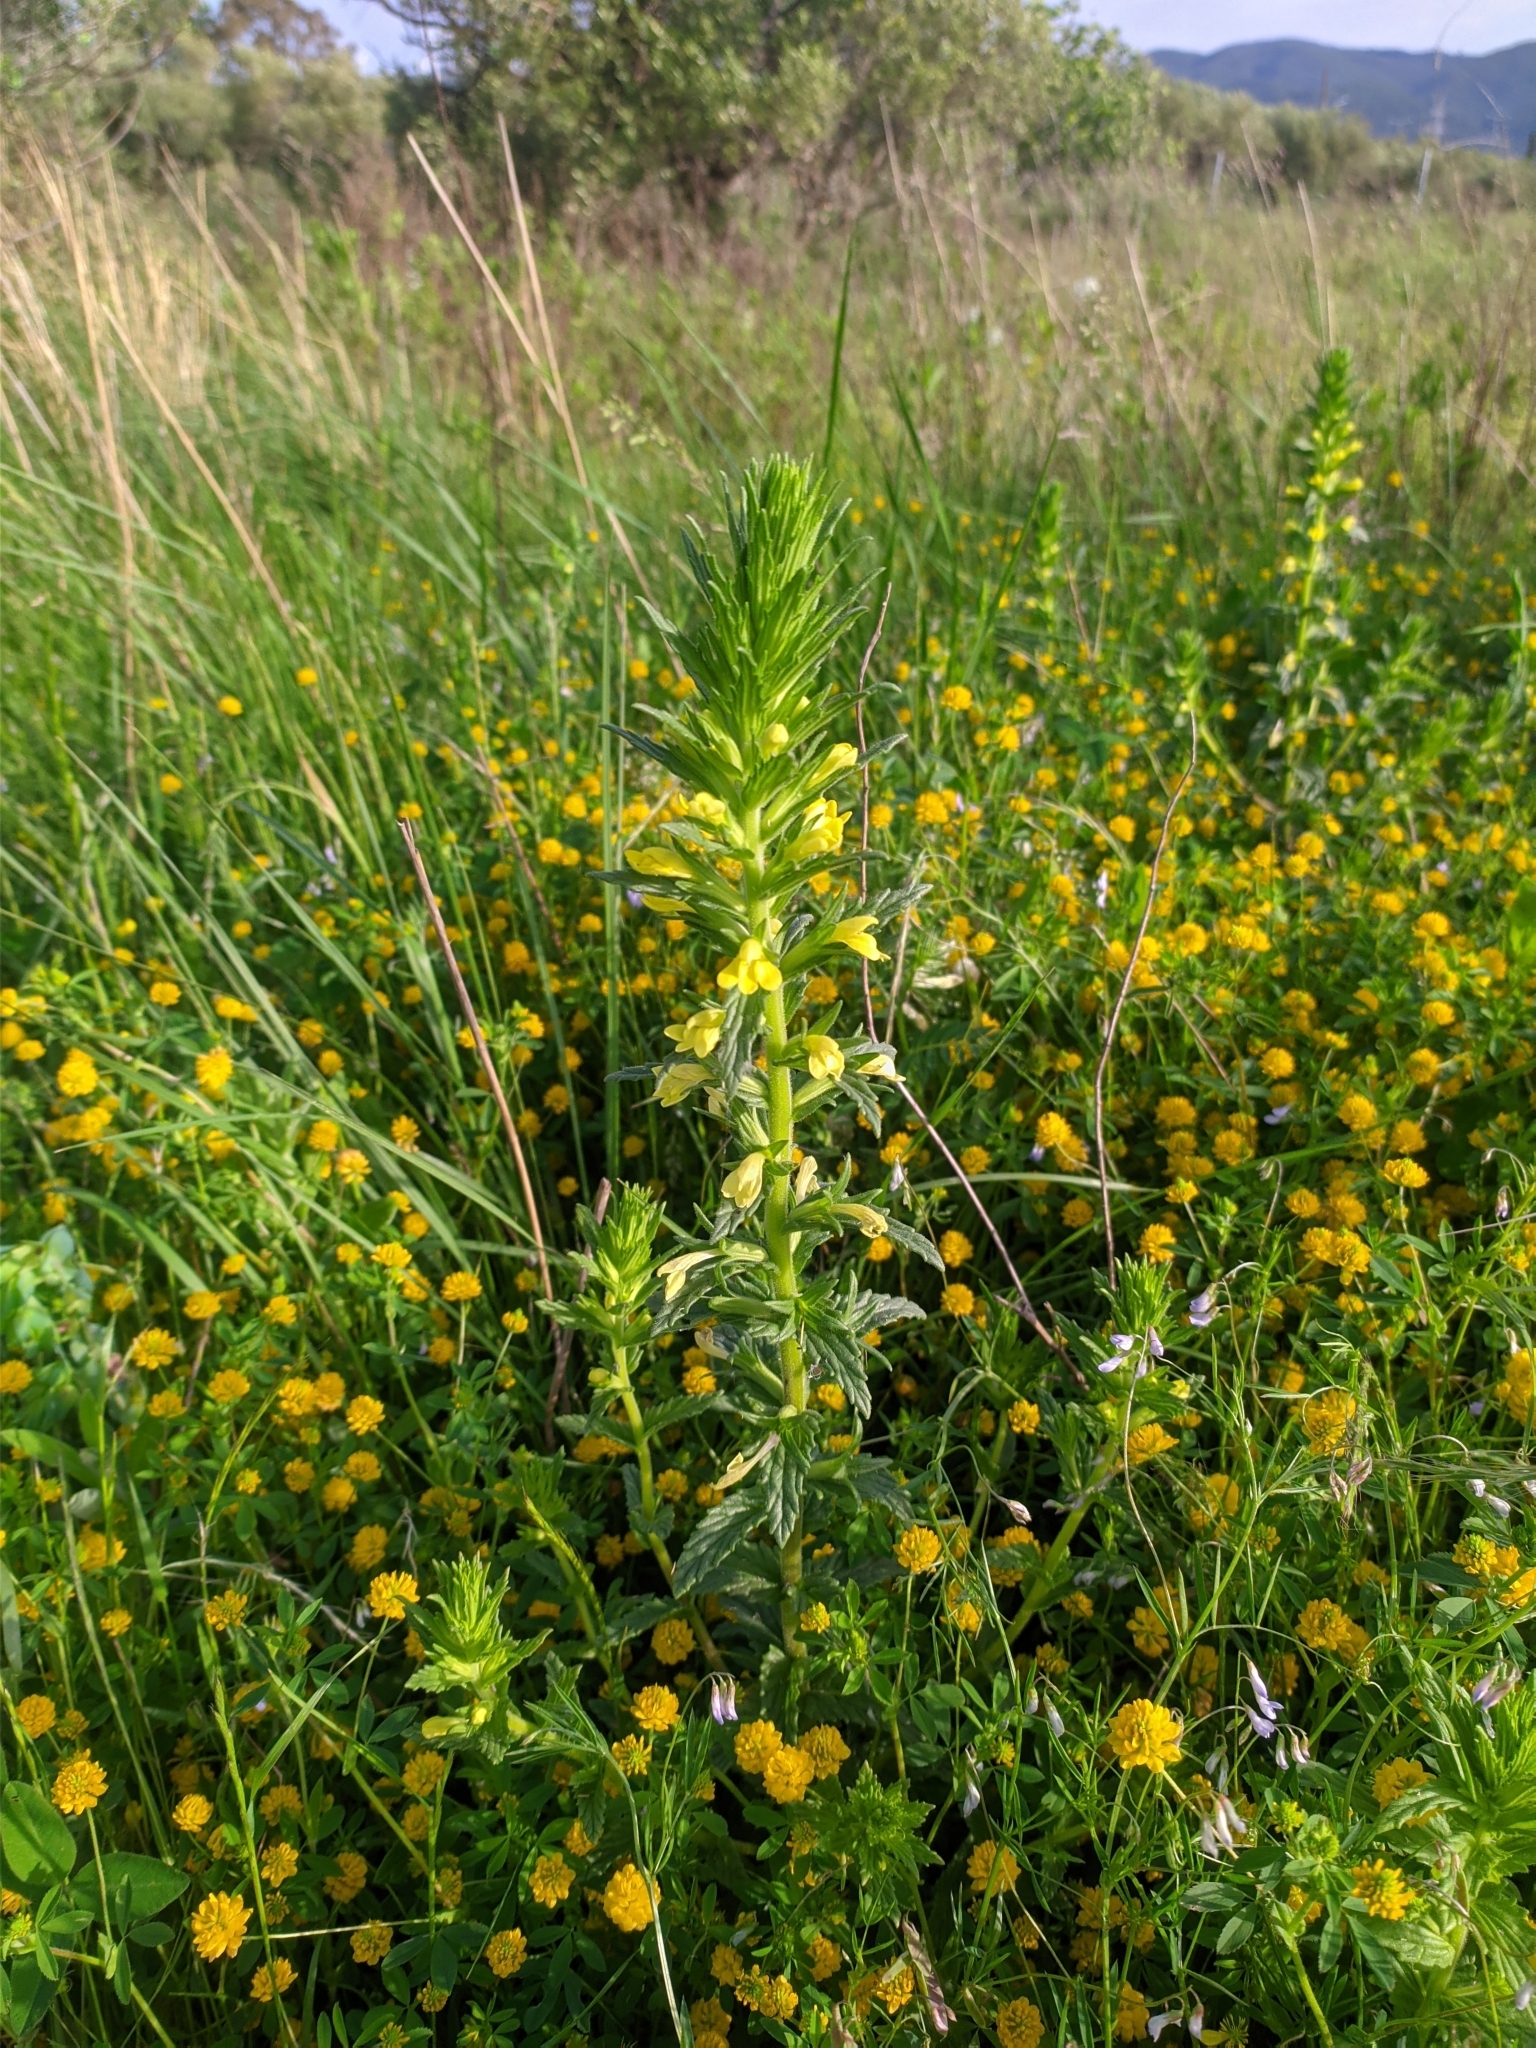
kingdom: Plantae
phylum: Tracheophyta
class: Magnoliopsida
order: Lamiales
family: Orobanchaceae
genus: Bellardia
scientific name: Bellardia viscosa
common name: Sticky parentucellia
